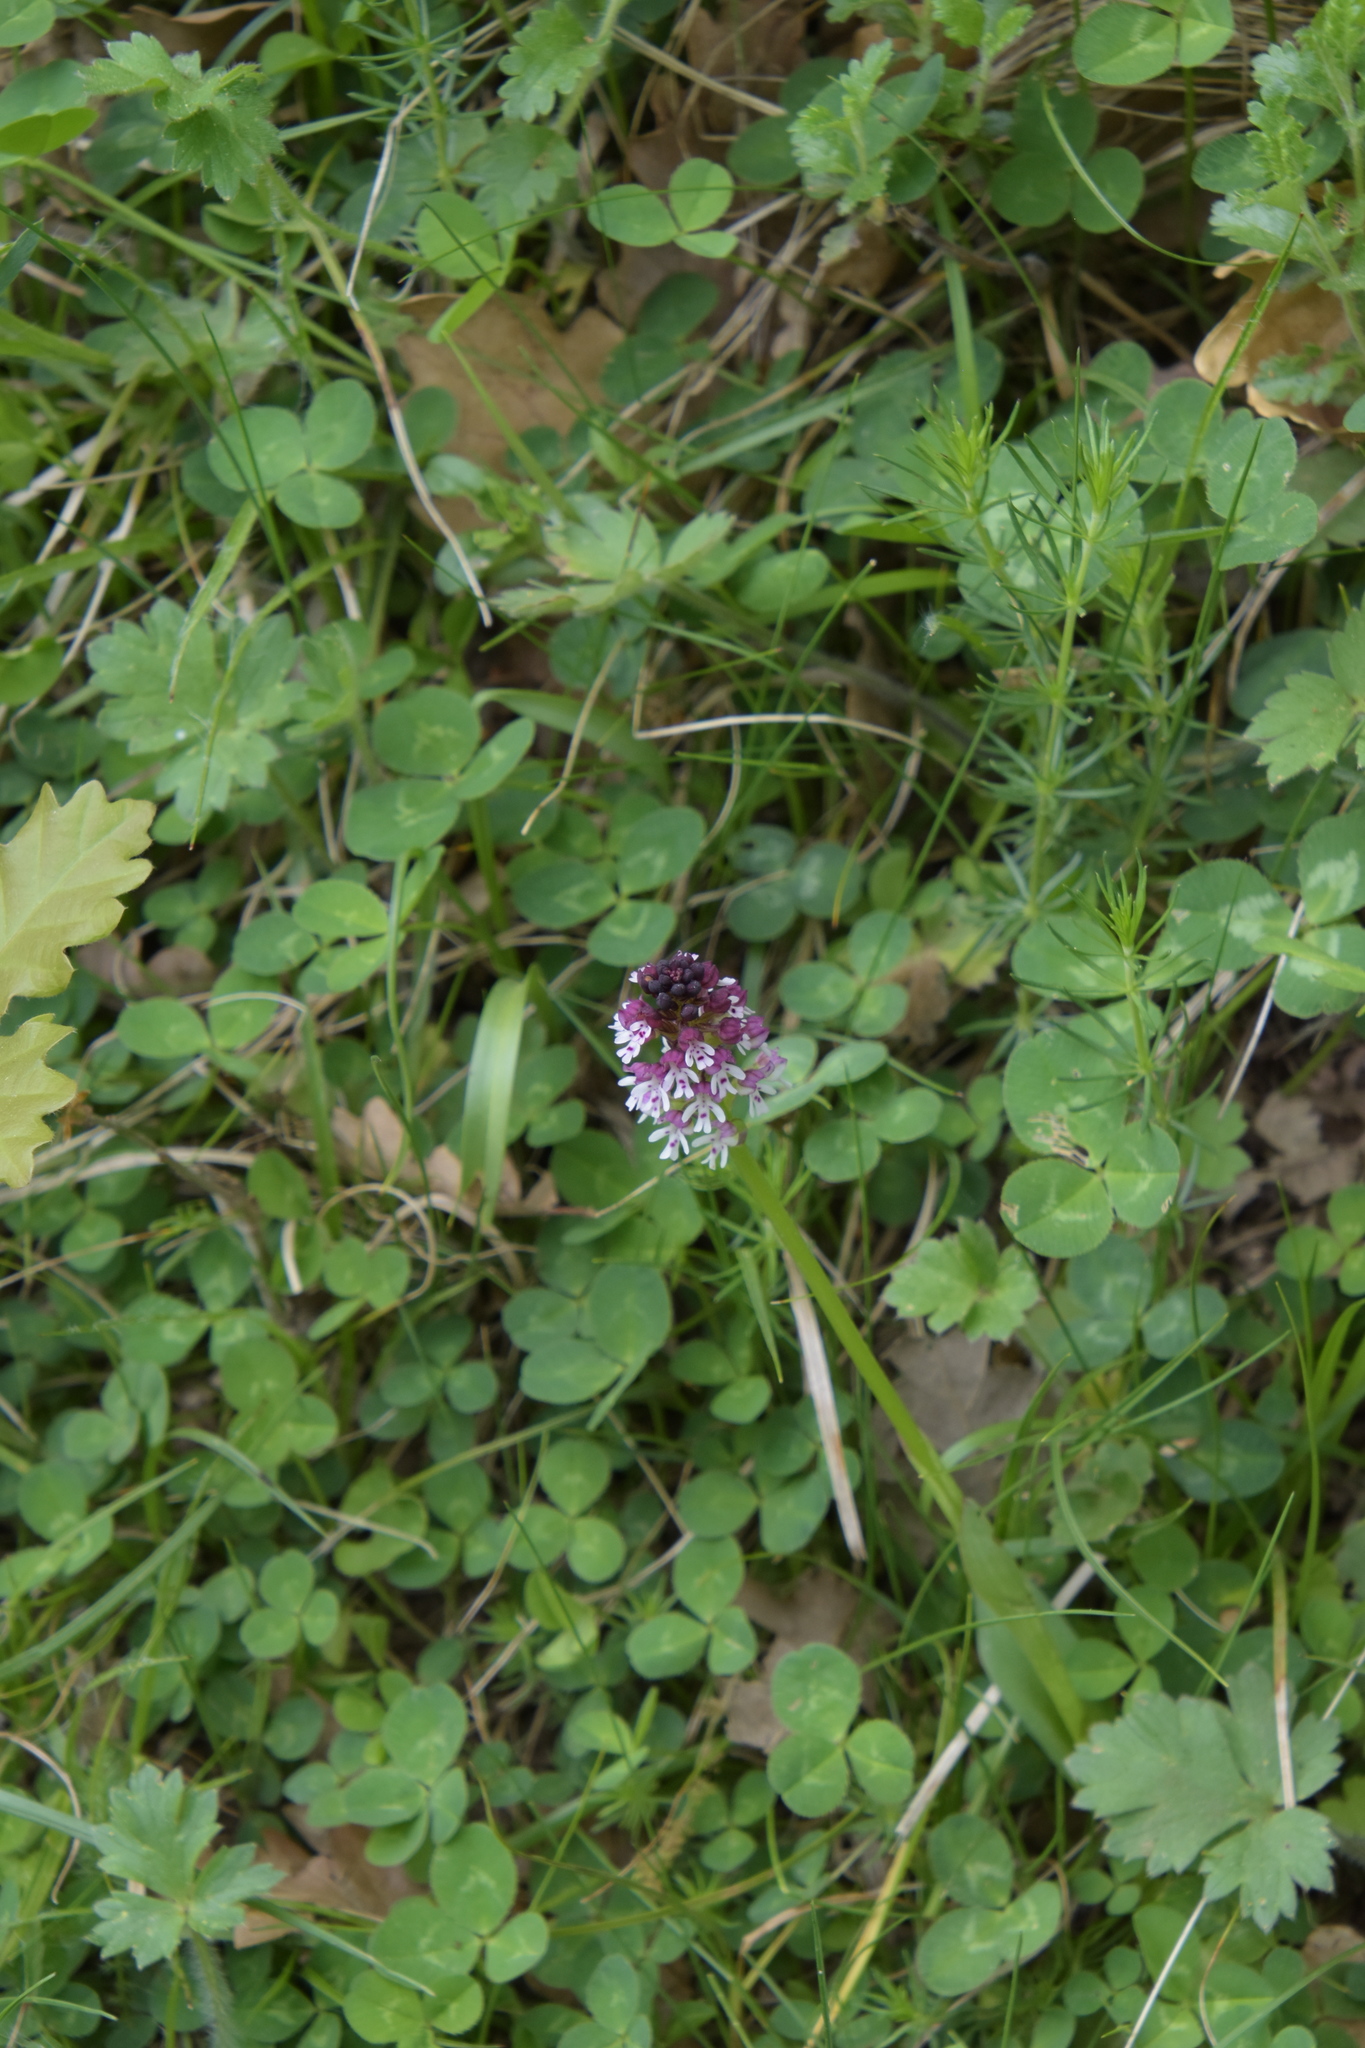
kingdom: Plantae
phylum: Tracheophyta
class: Liliopsida
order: Asparagales
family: Orchidaceae
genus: Neotinea
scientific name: Neotinea ustulata
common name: Burnt orchid
